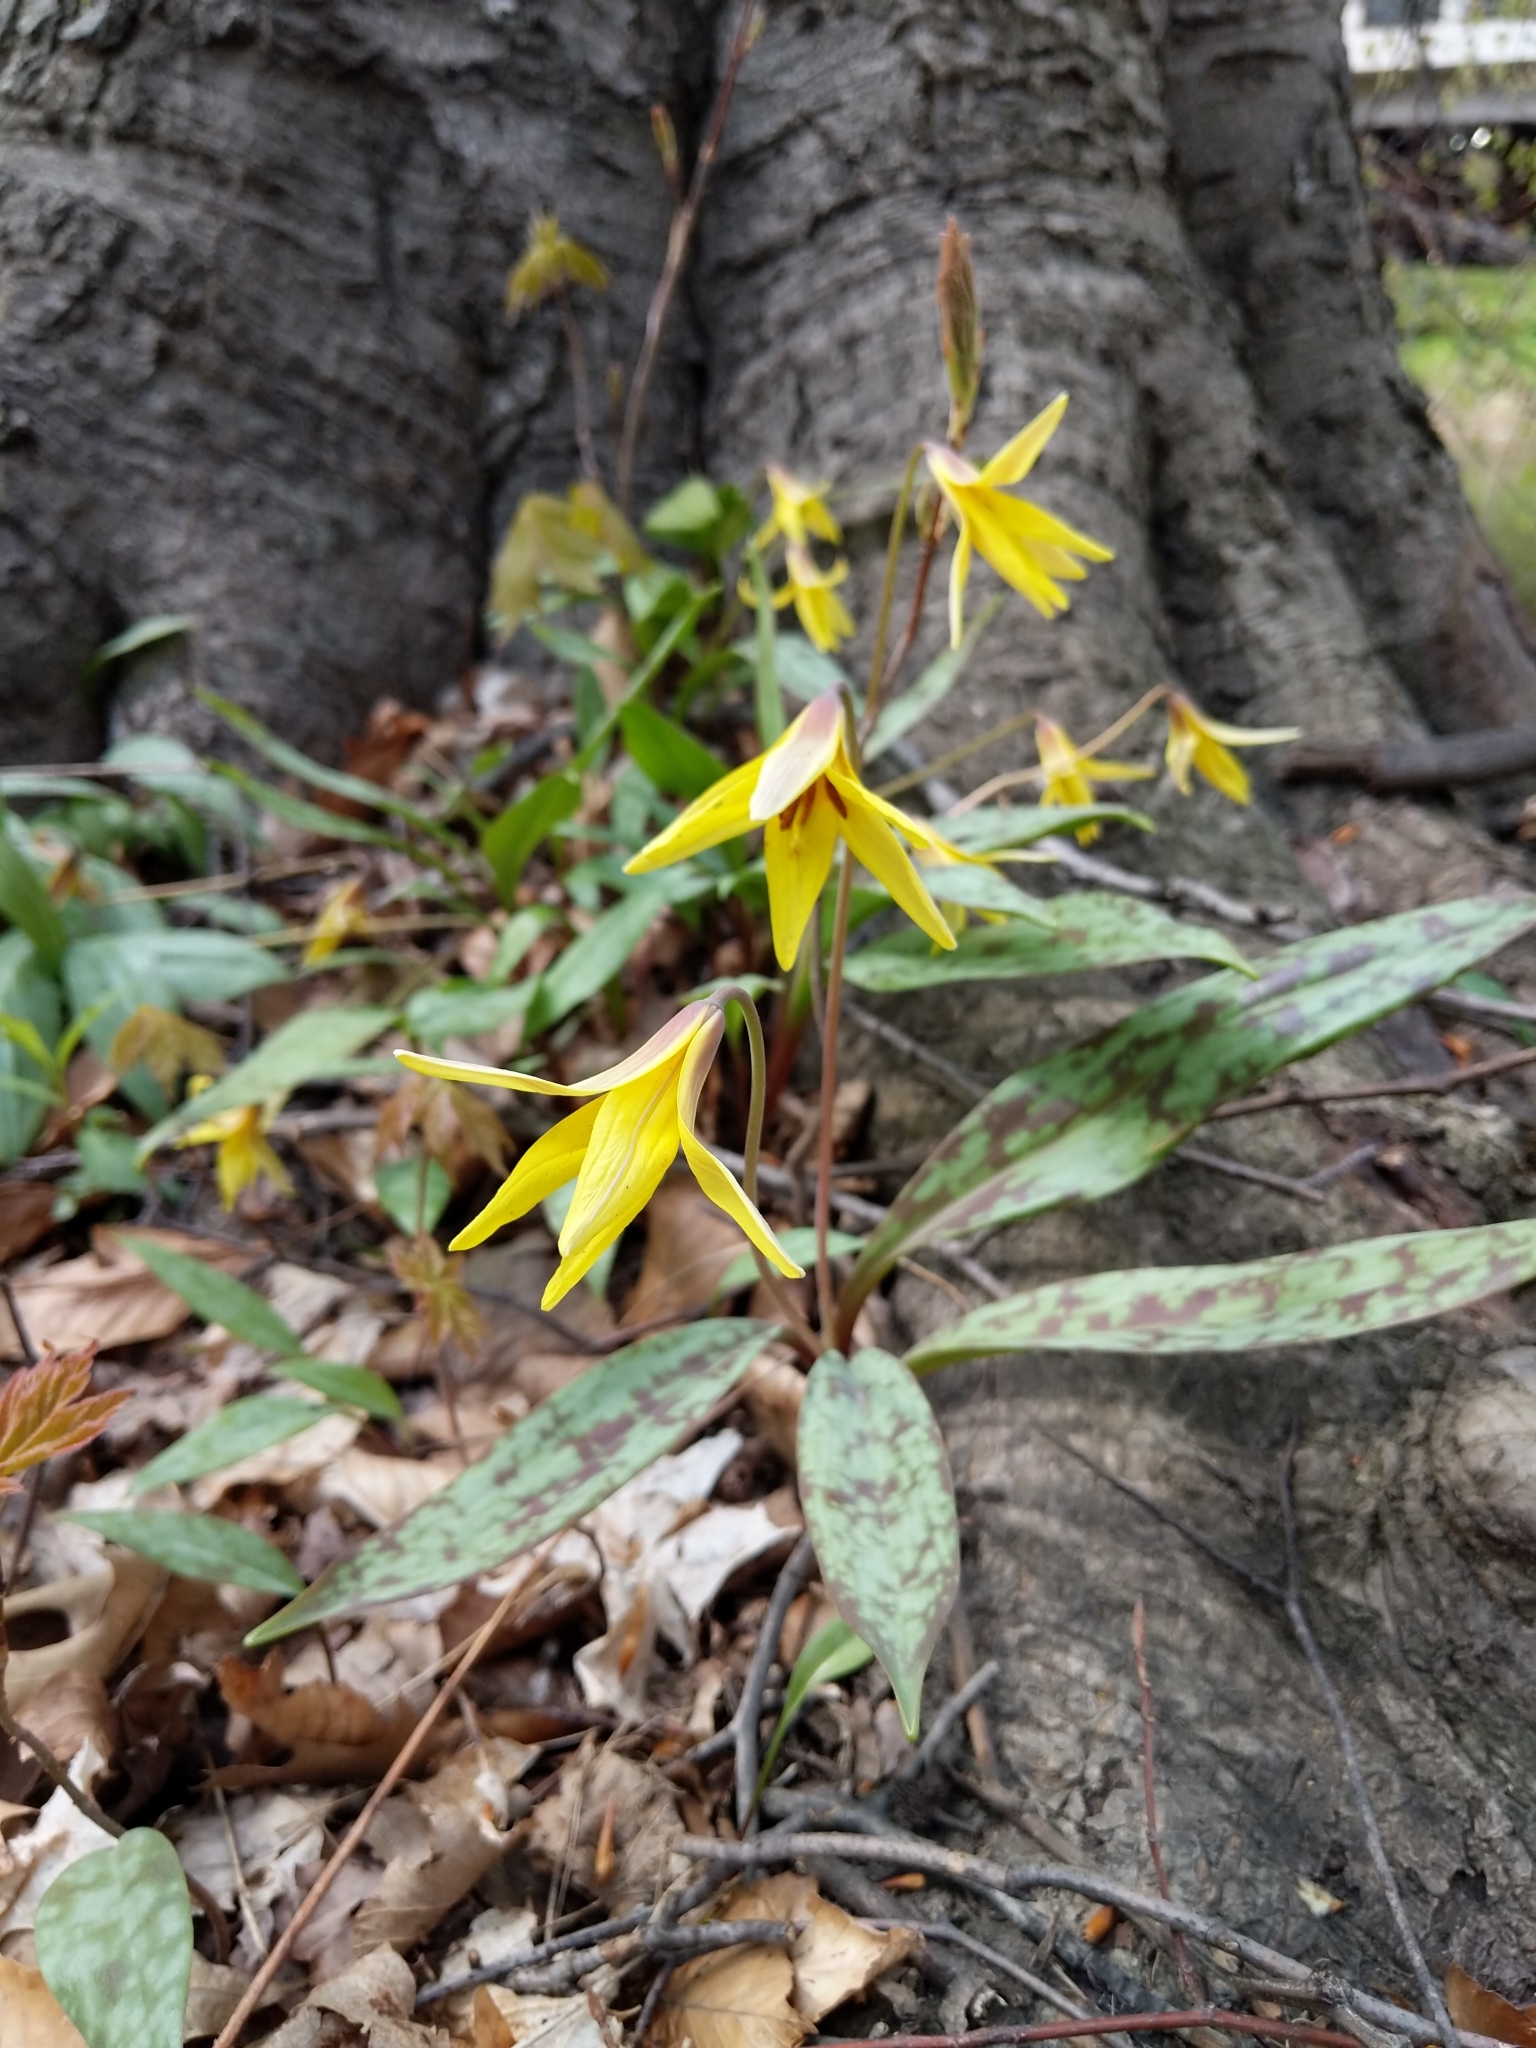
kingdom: Plantae
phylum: Tracheophyta
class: Liliopsida
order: Liliales
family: Liliaceae
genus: Erythronium
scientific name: Erythronium americanum
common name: Yellow adder's-tongue
